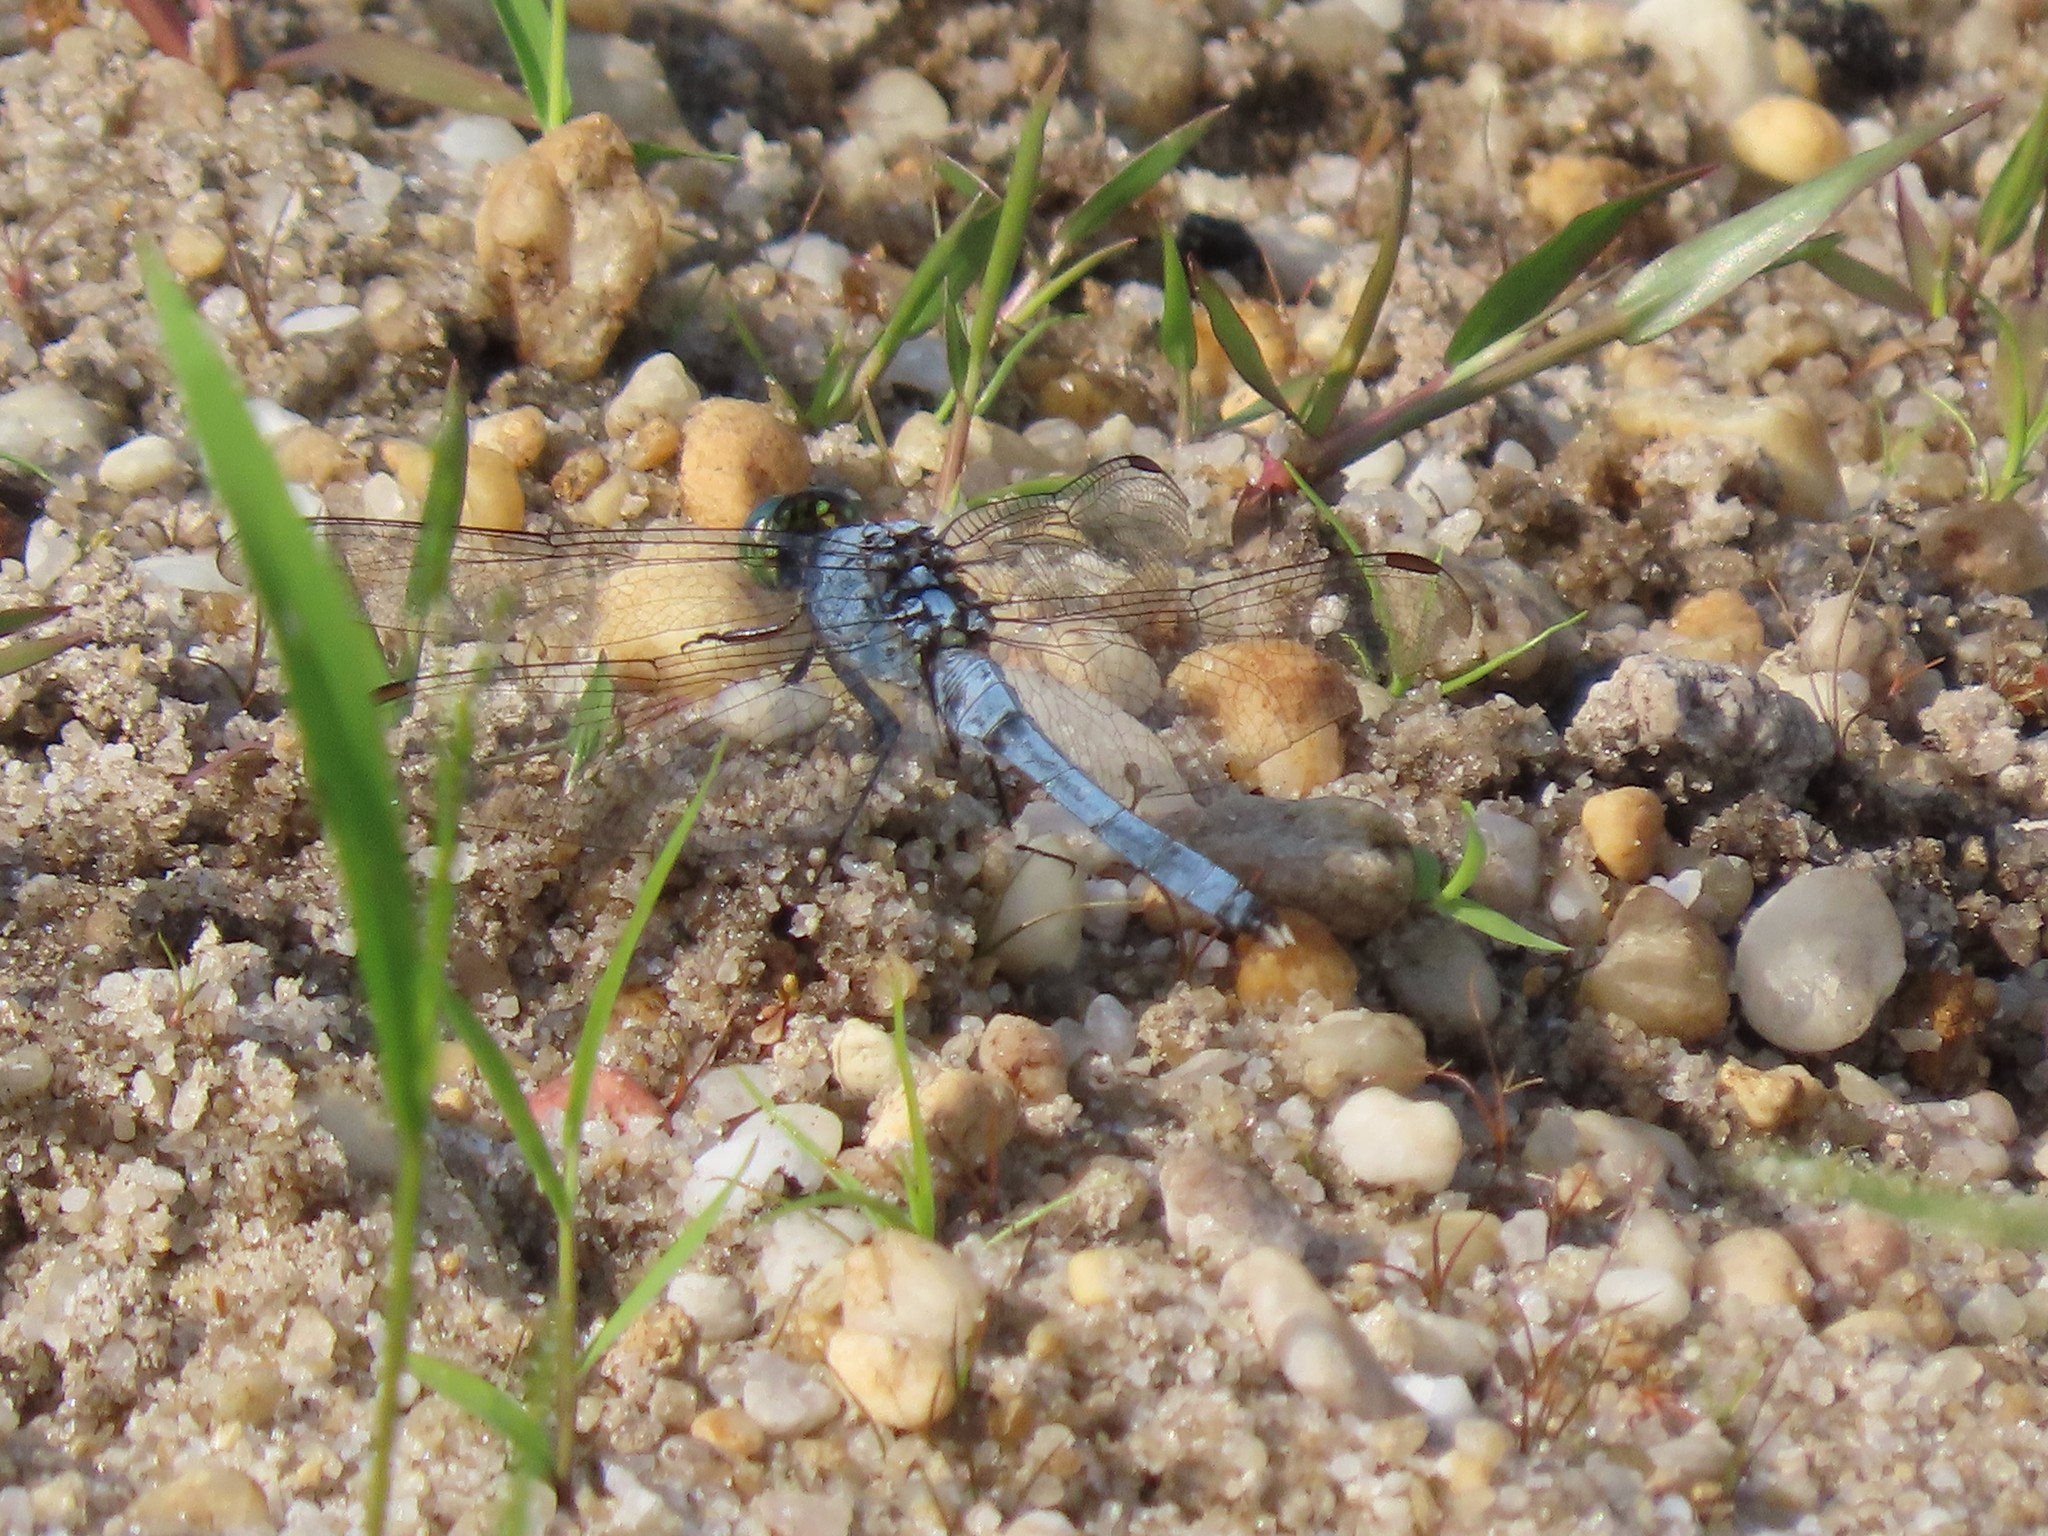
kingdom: Animalia
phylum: Arthropoda
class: Insecta
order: Odonata
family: Libellulidae
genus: Erythemis
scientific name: Erythemis simplicicollis
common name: Eastern pondhawk
